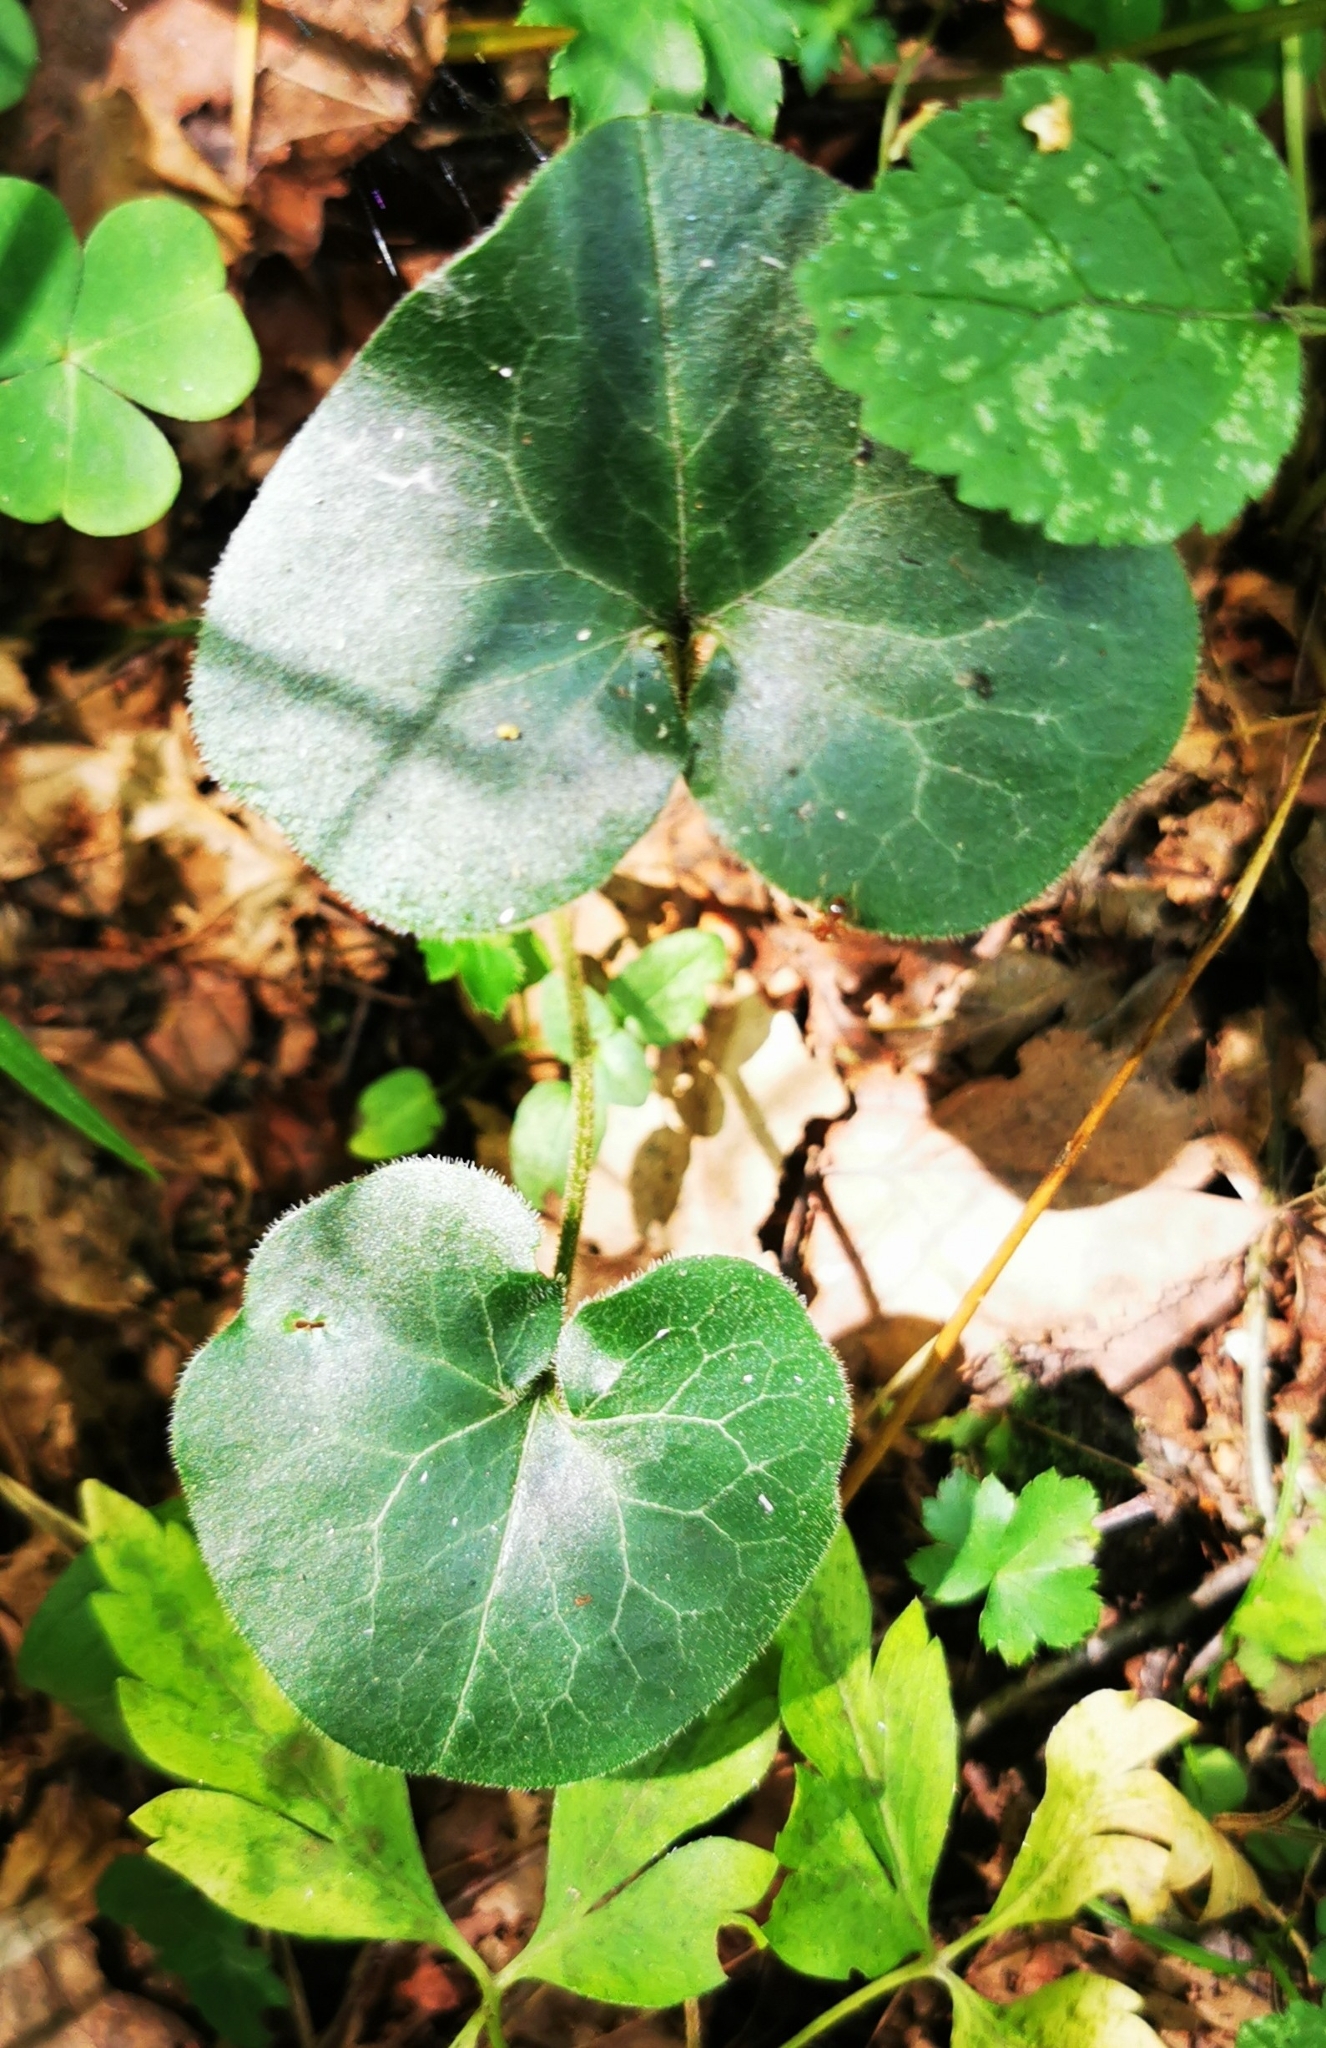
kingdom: Plantae
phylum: Tracheophyta
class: Magnoliopsida
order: Piperales
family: Aristolochiaceae
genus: Asarum
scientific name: Asarum europaeum
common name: Asarabacca
